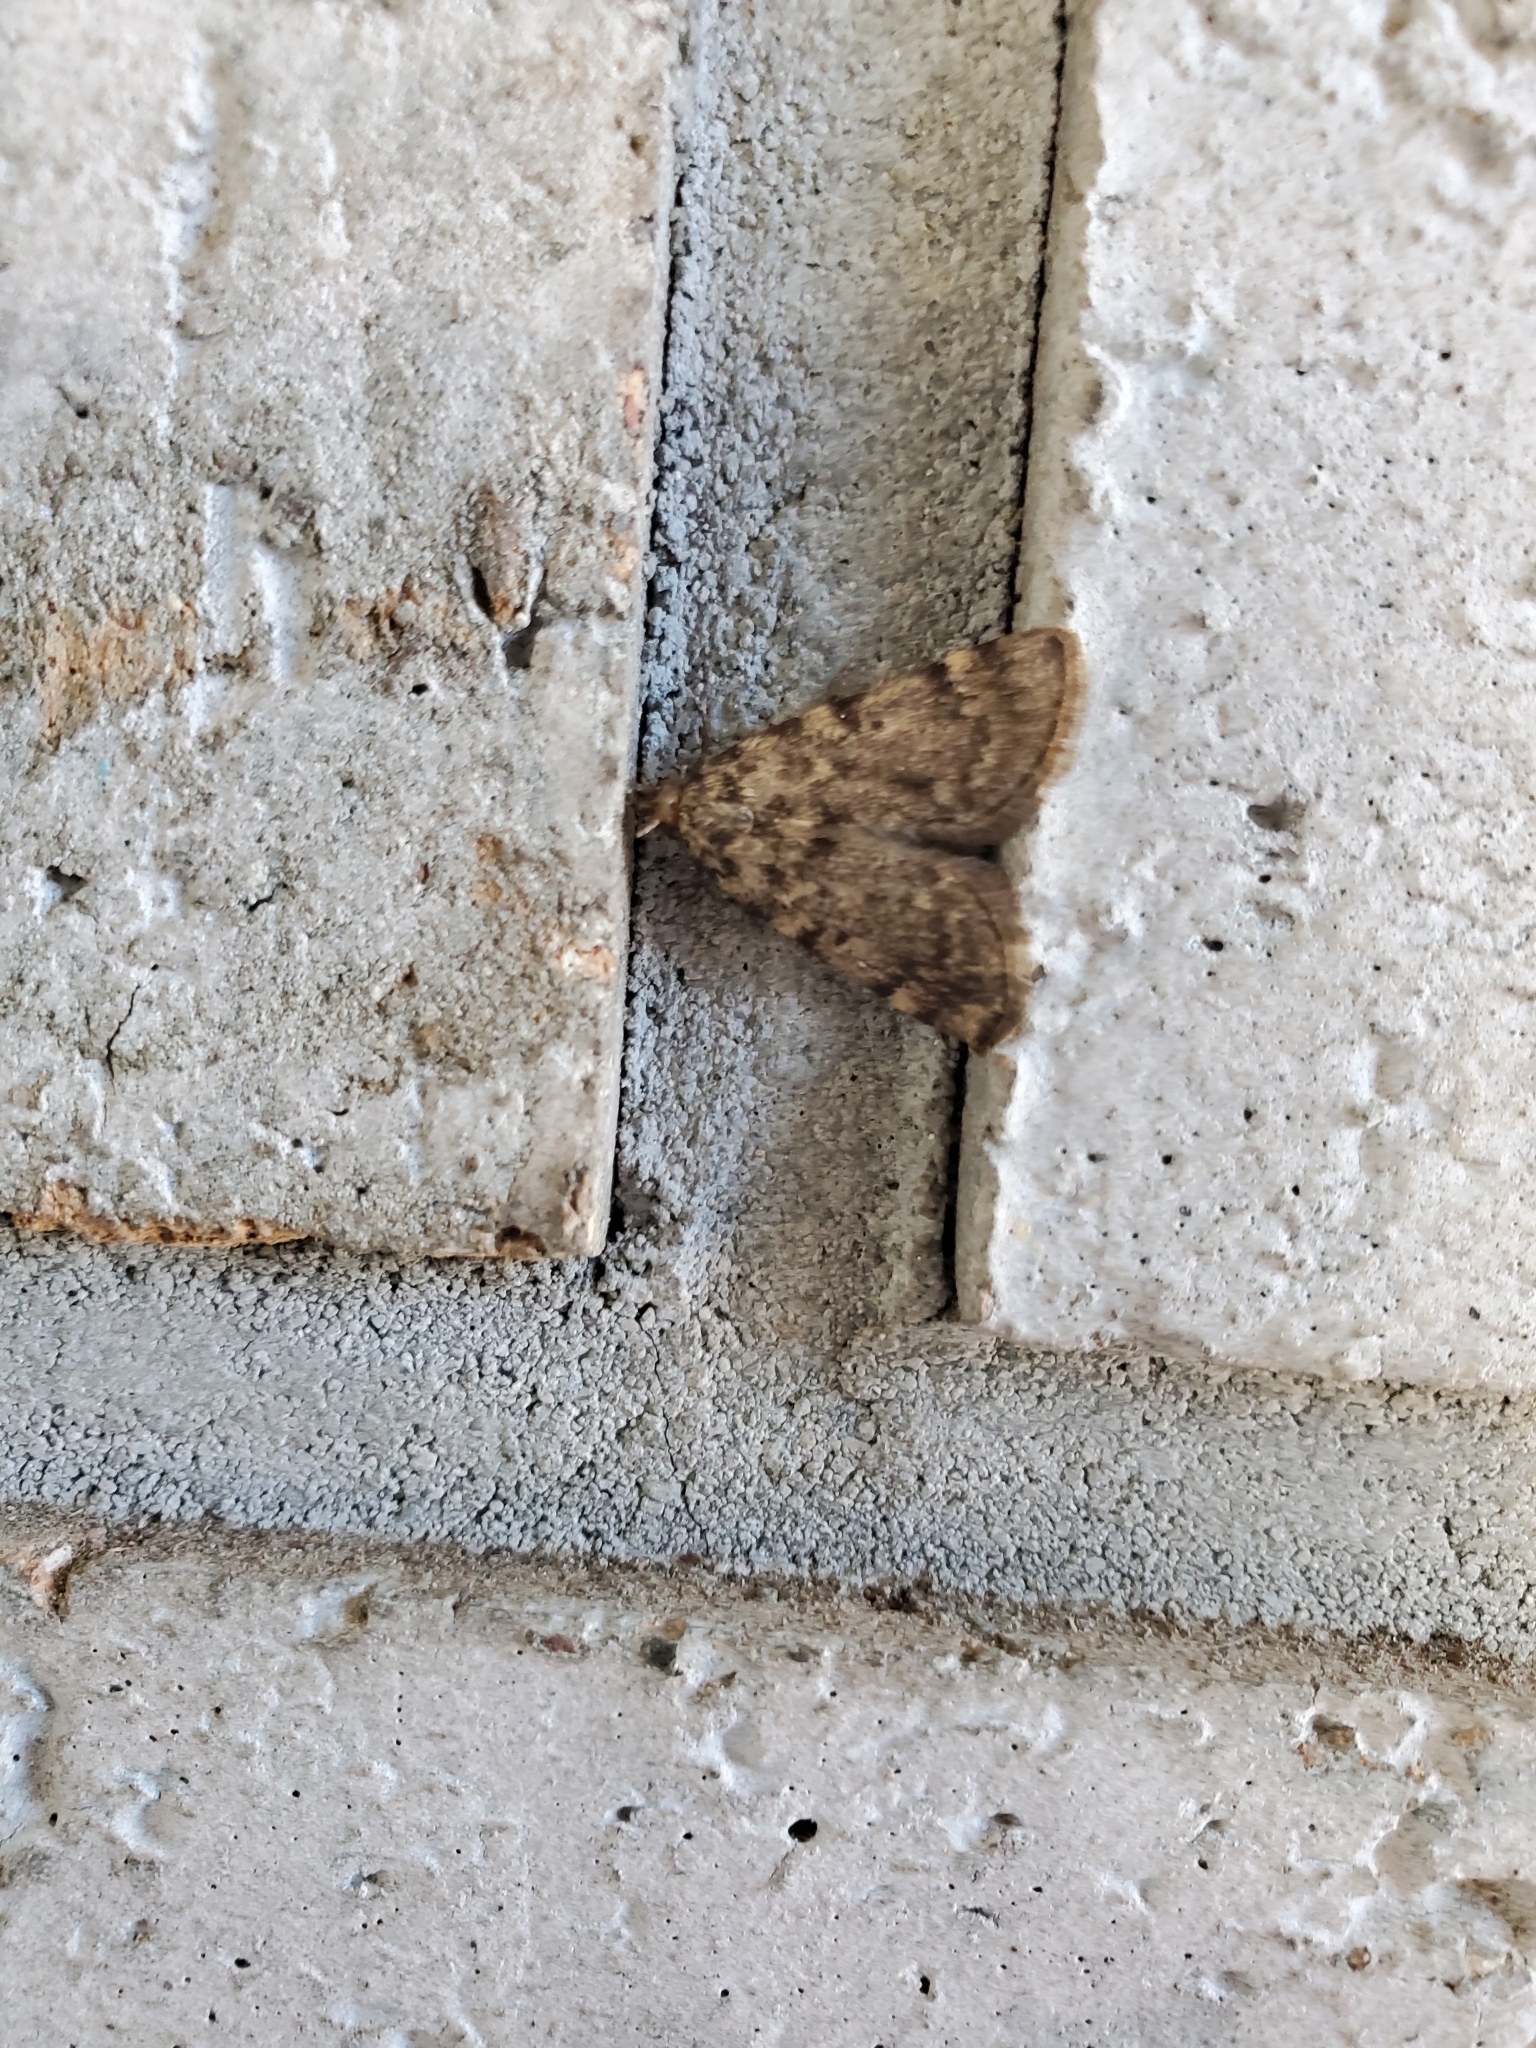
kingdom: Animalia
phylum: Arthropoda
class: Insecta
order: Lepidoptera
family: Pyralidae
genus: Aglossa
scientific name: Aglossa pinguinalis
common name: Large tabby
